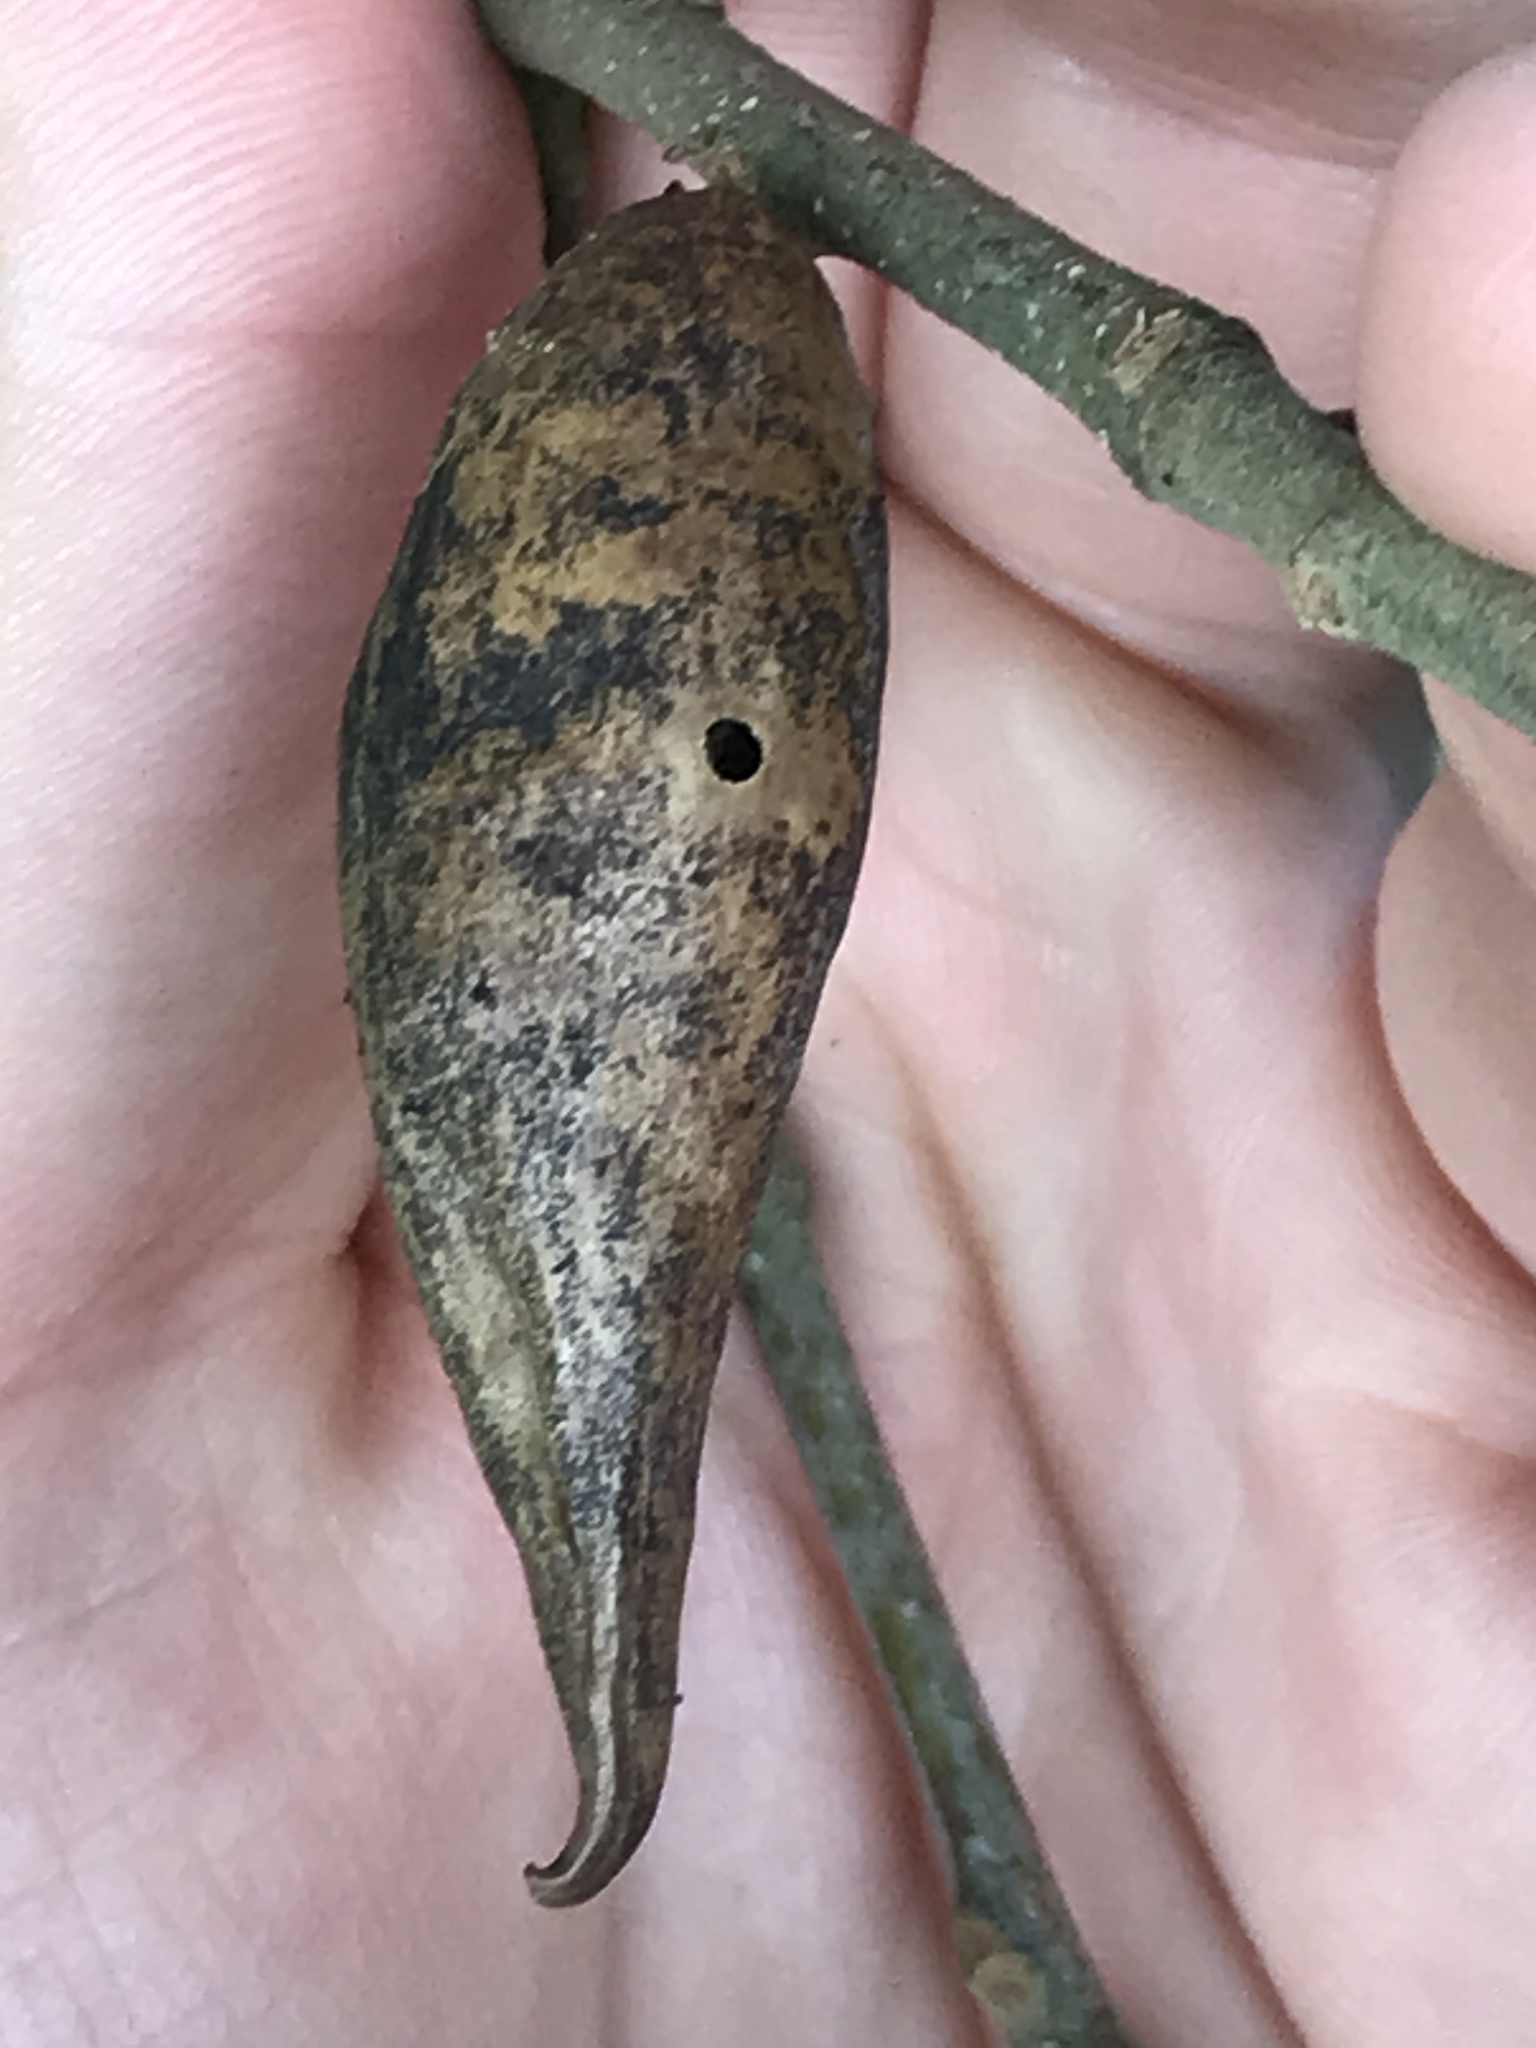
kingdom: Animalia
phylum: Arthropoda
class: Insecta
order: Hymenoptera
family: Cynipidae
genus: Amphibolips
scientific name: Amphibolips
